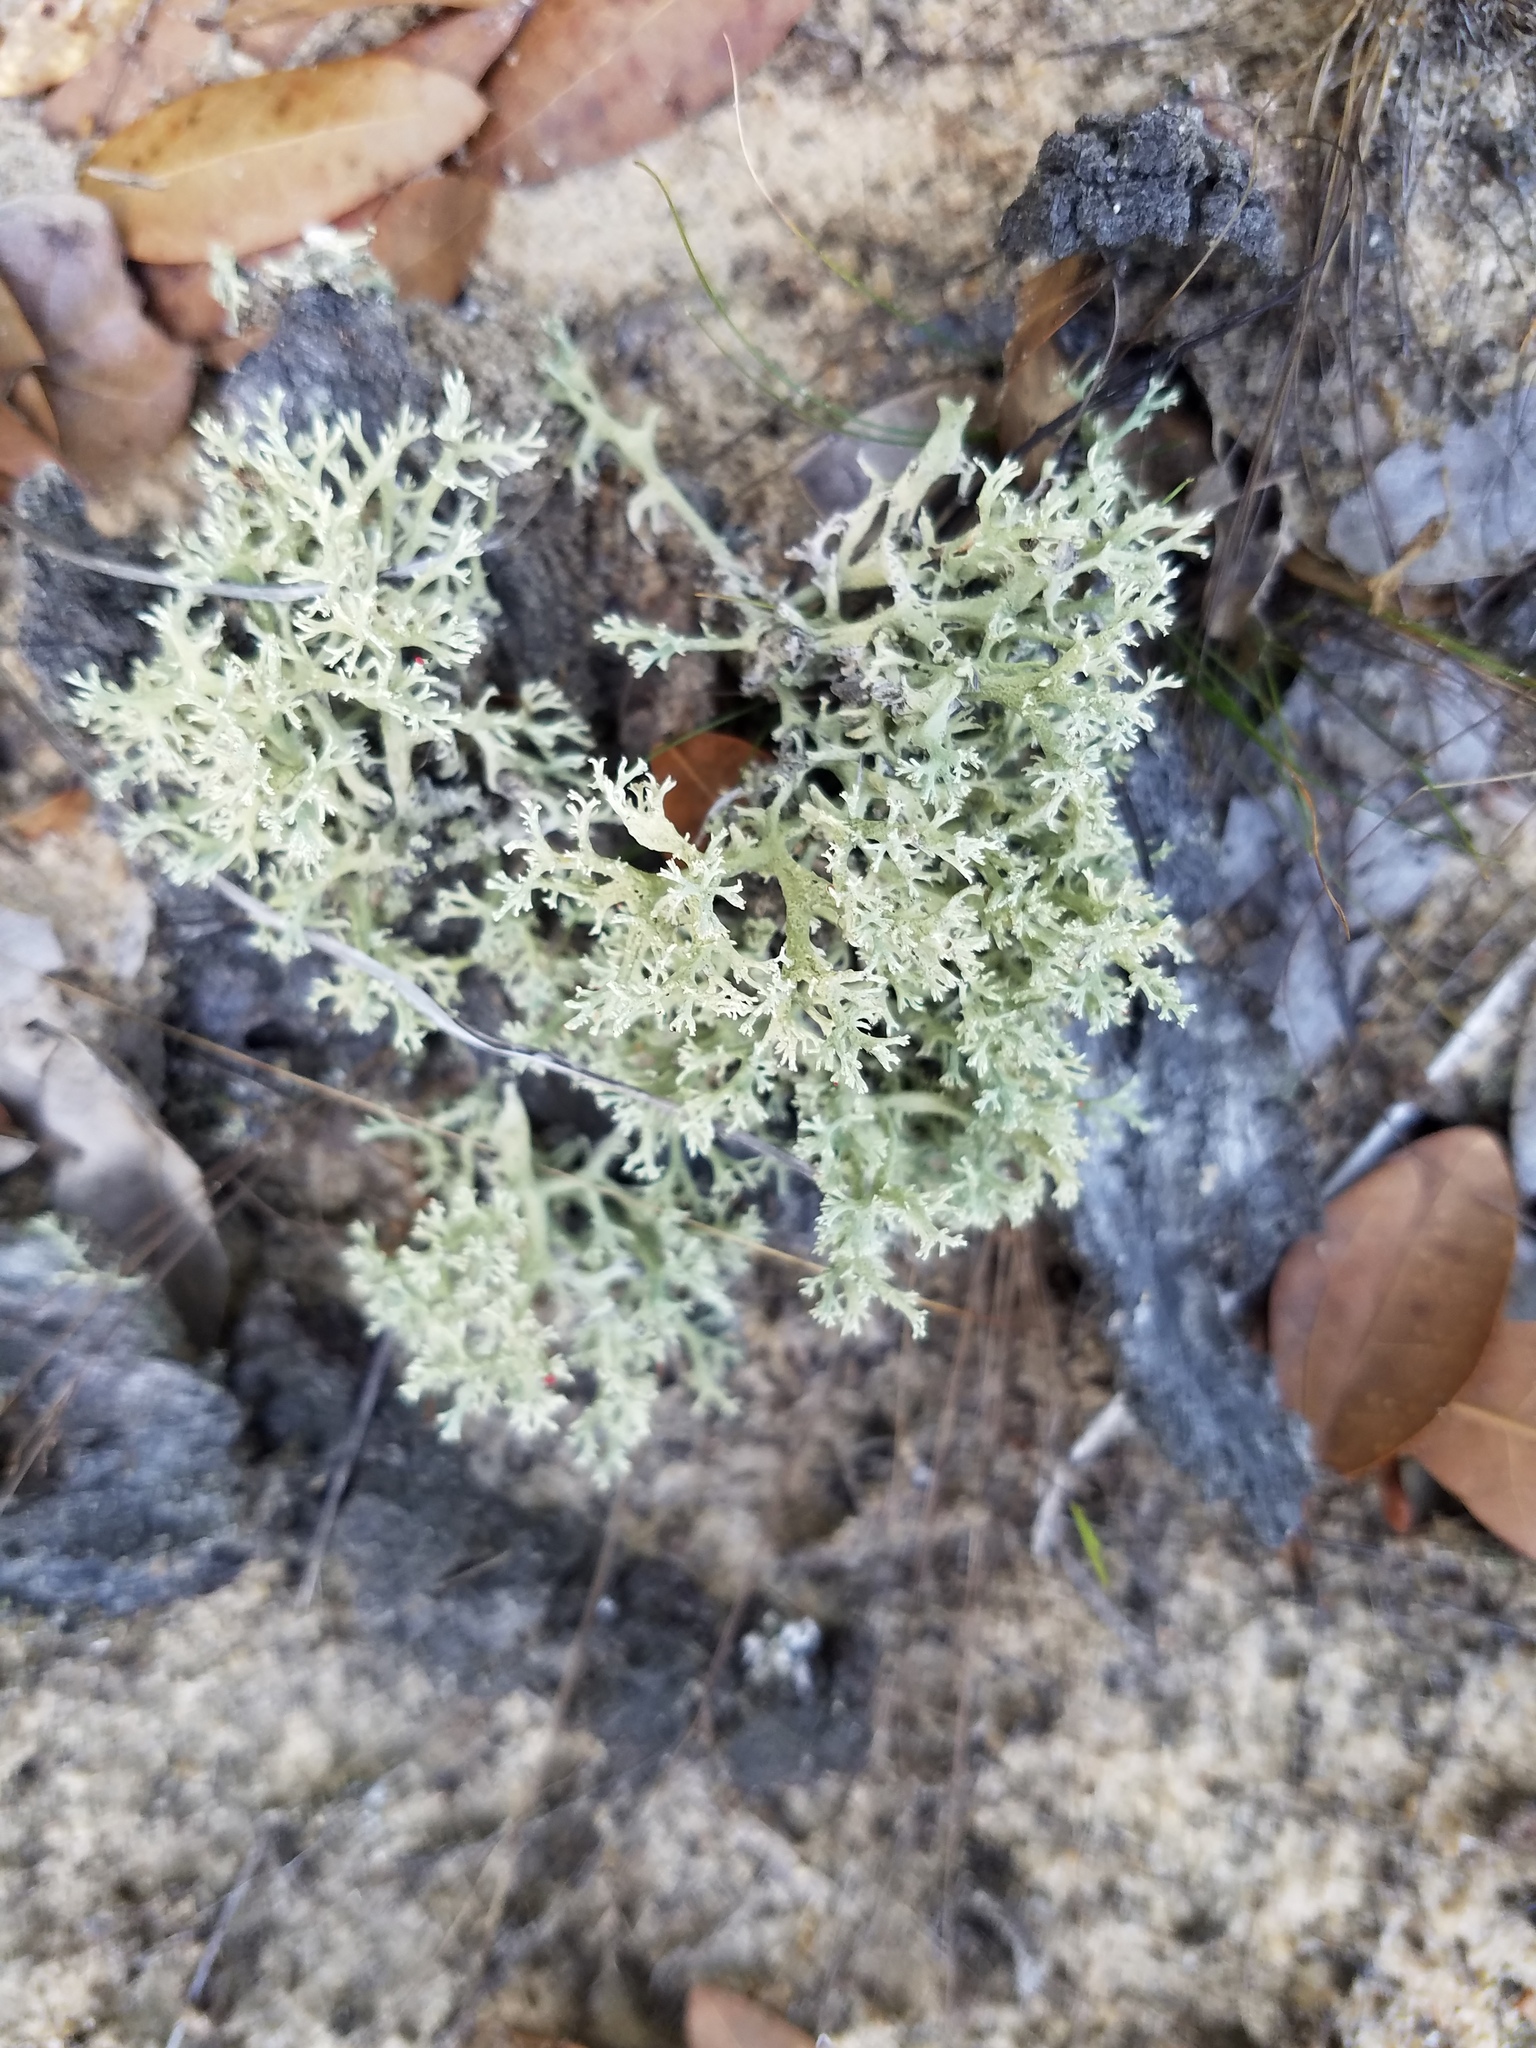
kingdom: Fungi
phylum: Ascomycota
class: Lecanoromycetes
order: Lecanorales
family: Cladoniaceae
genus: Cladonia
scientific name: Cladonia leporina
